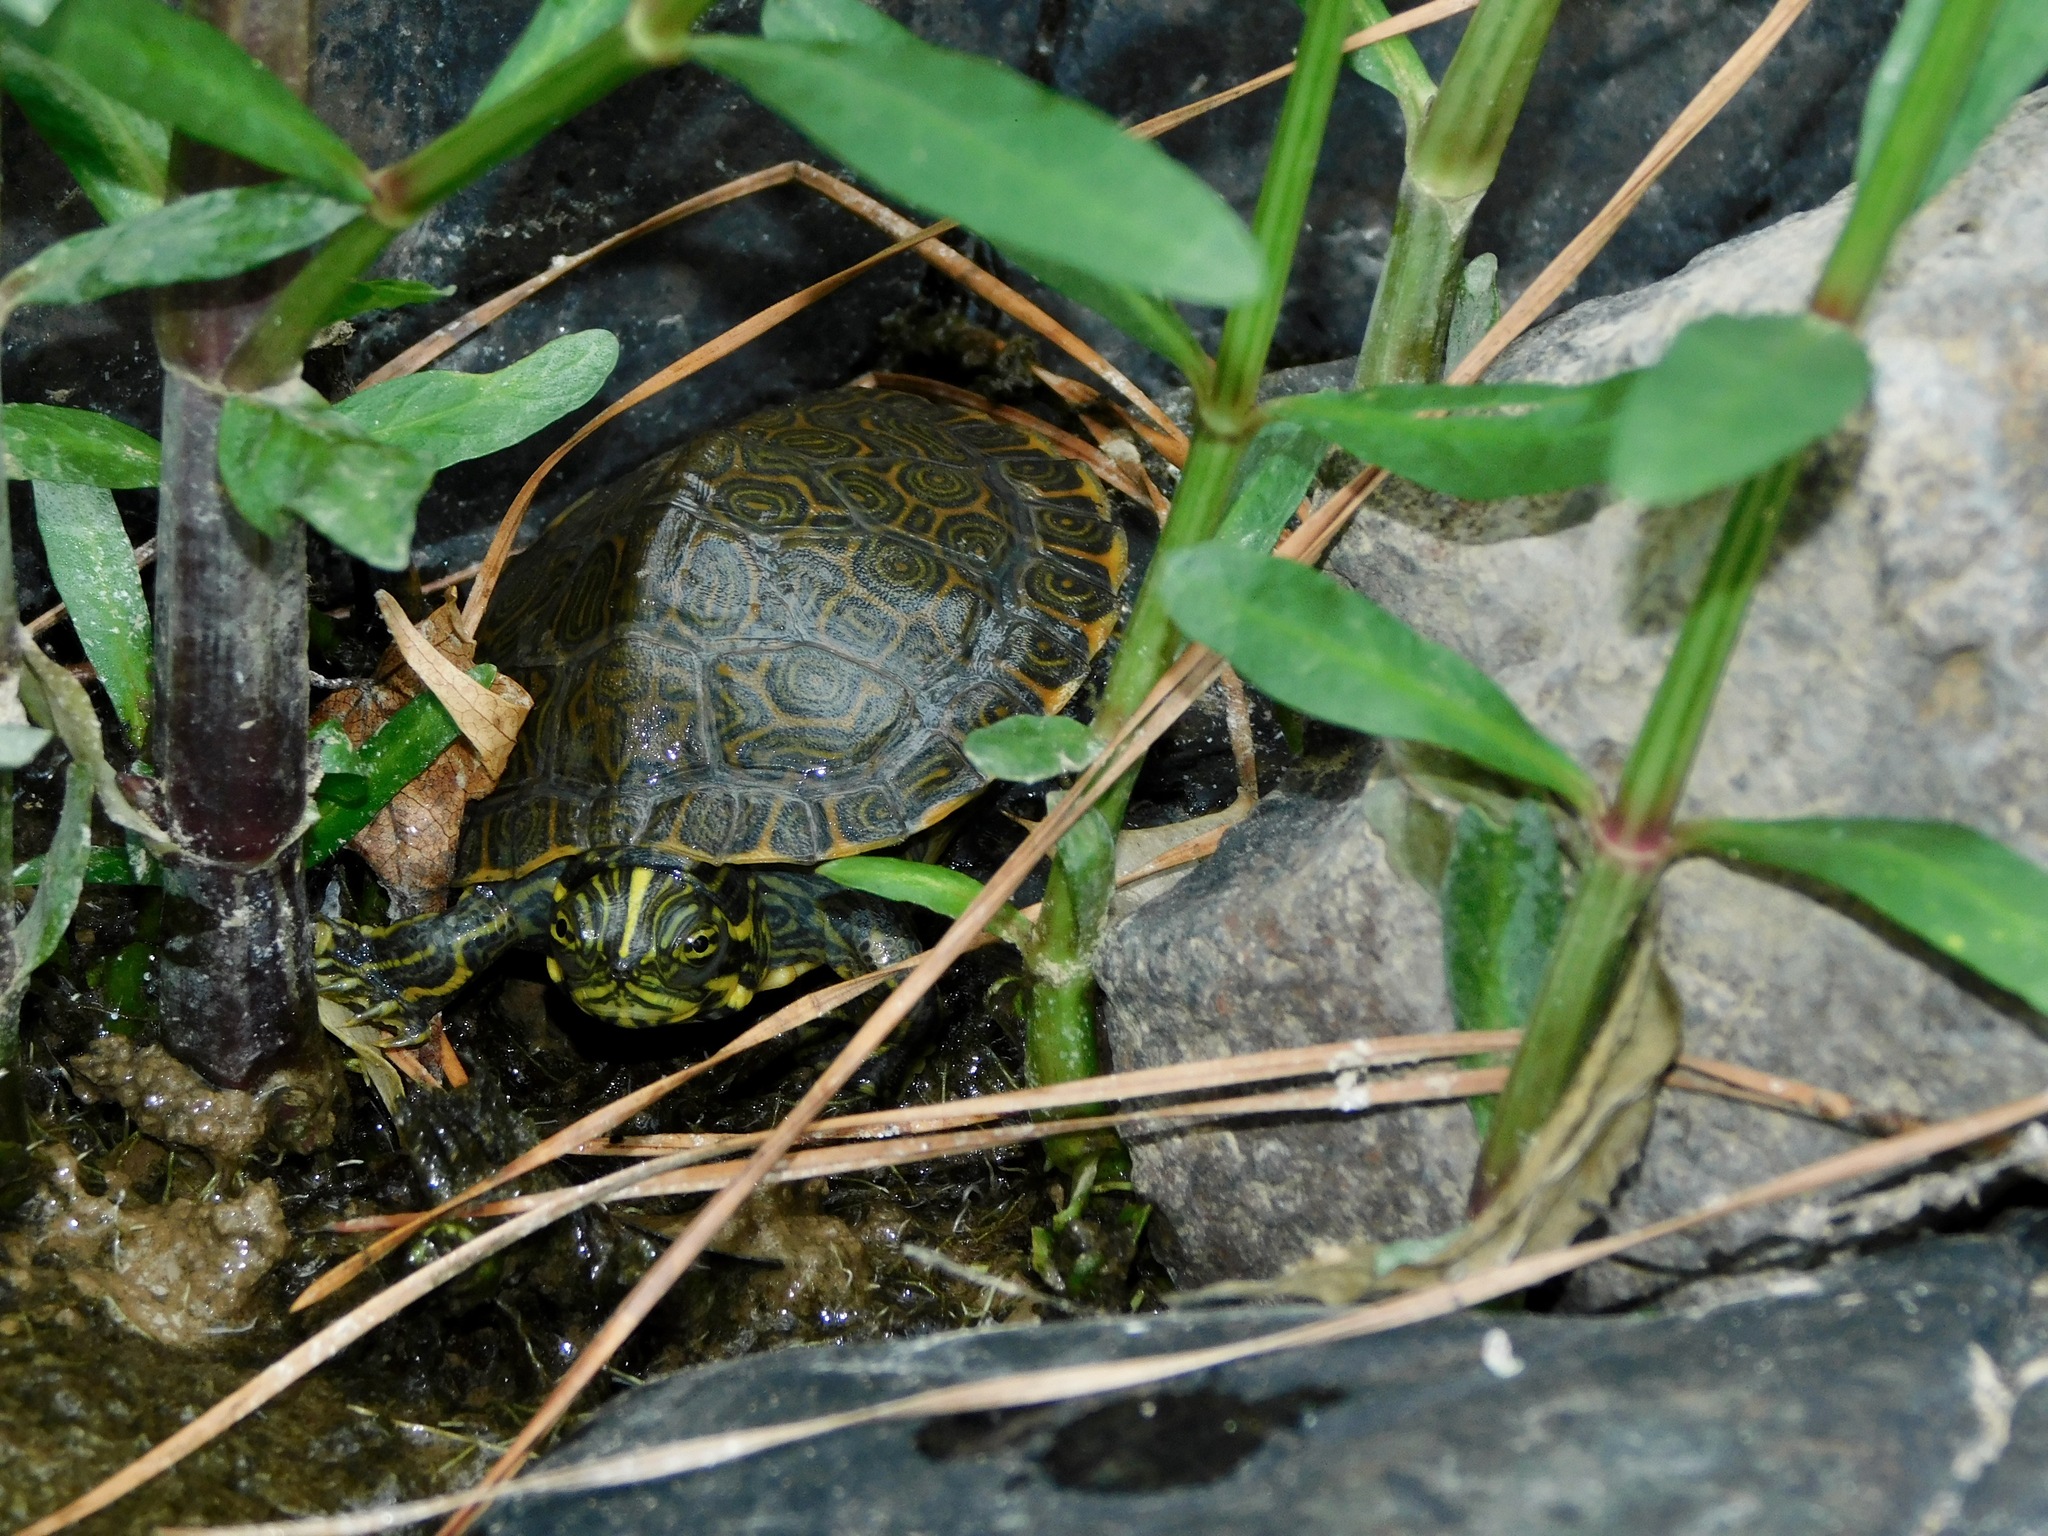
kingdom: Animalia
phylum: Chordata
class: Testudines
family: Emydidae
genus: Pseudemys
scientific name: Pseudemys concinna
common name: Eastern river cooter
